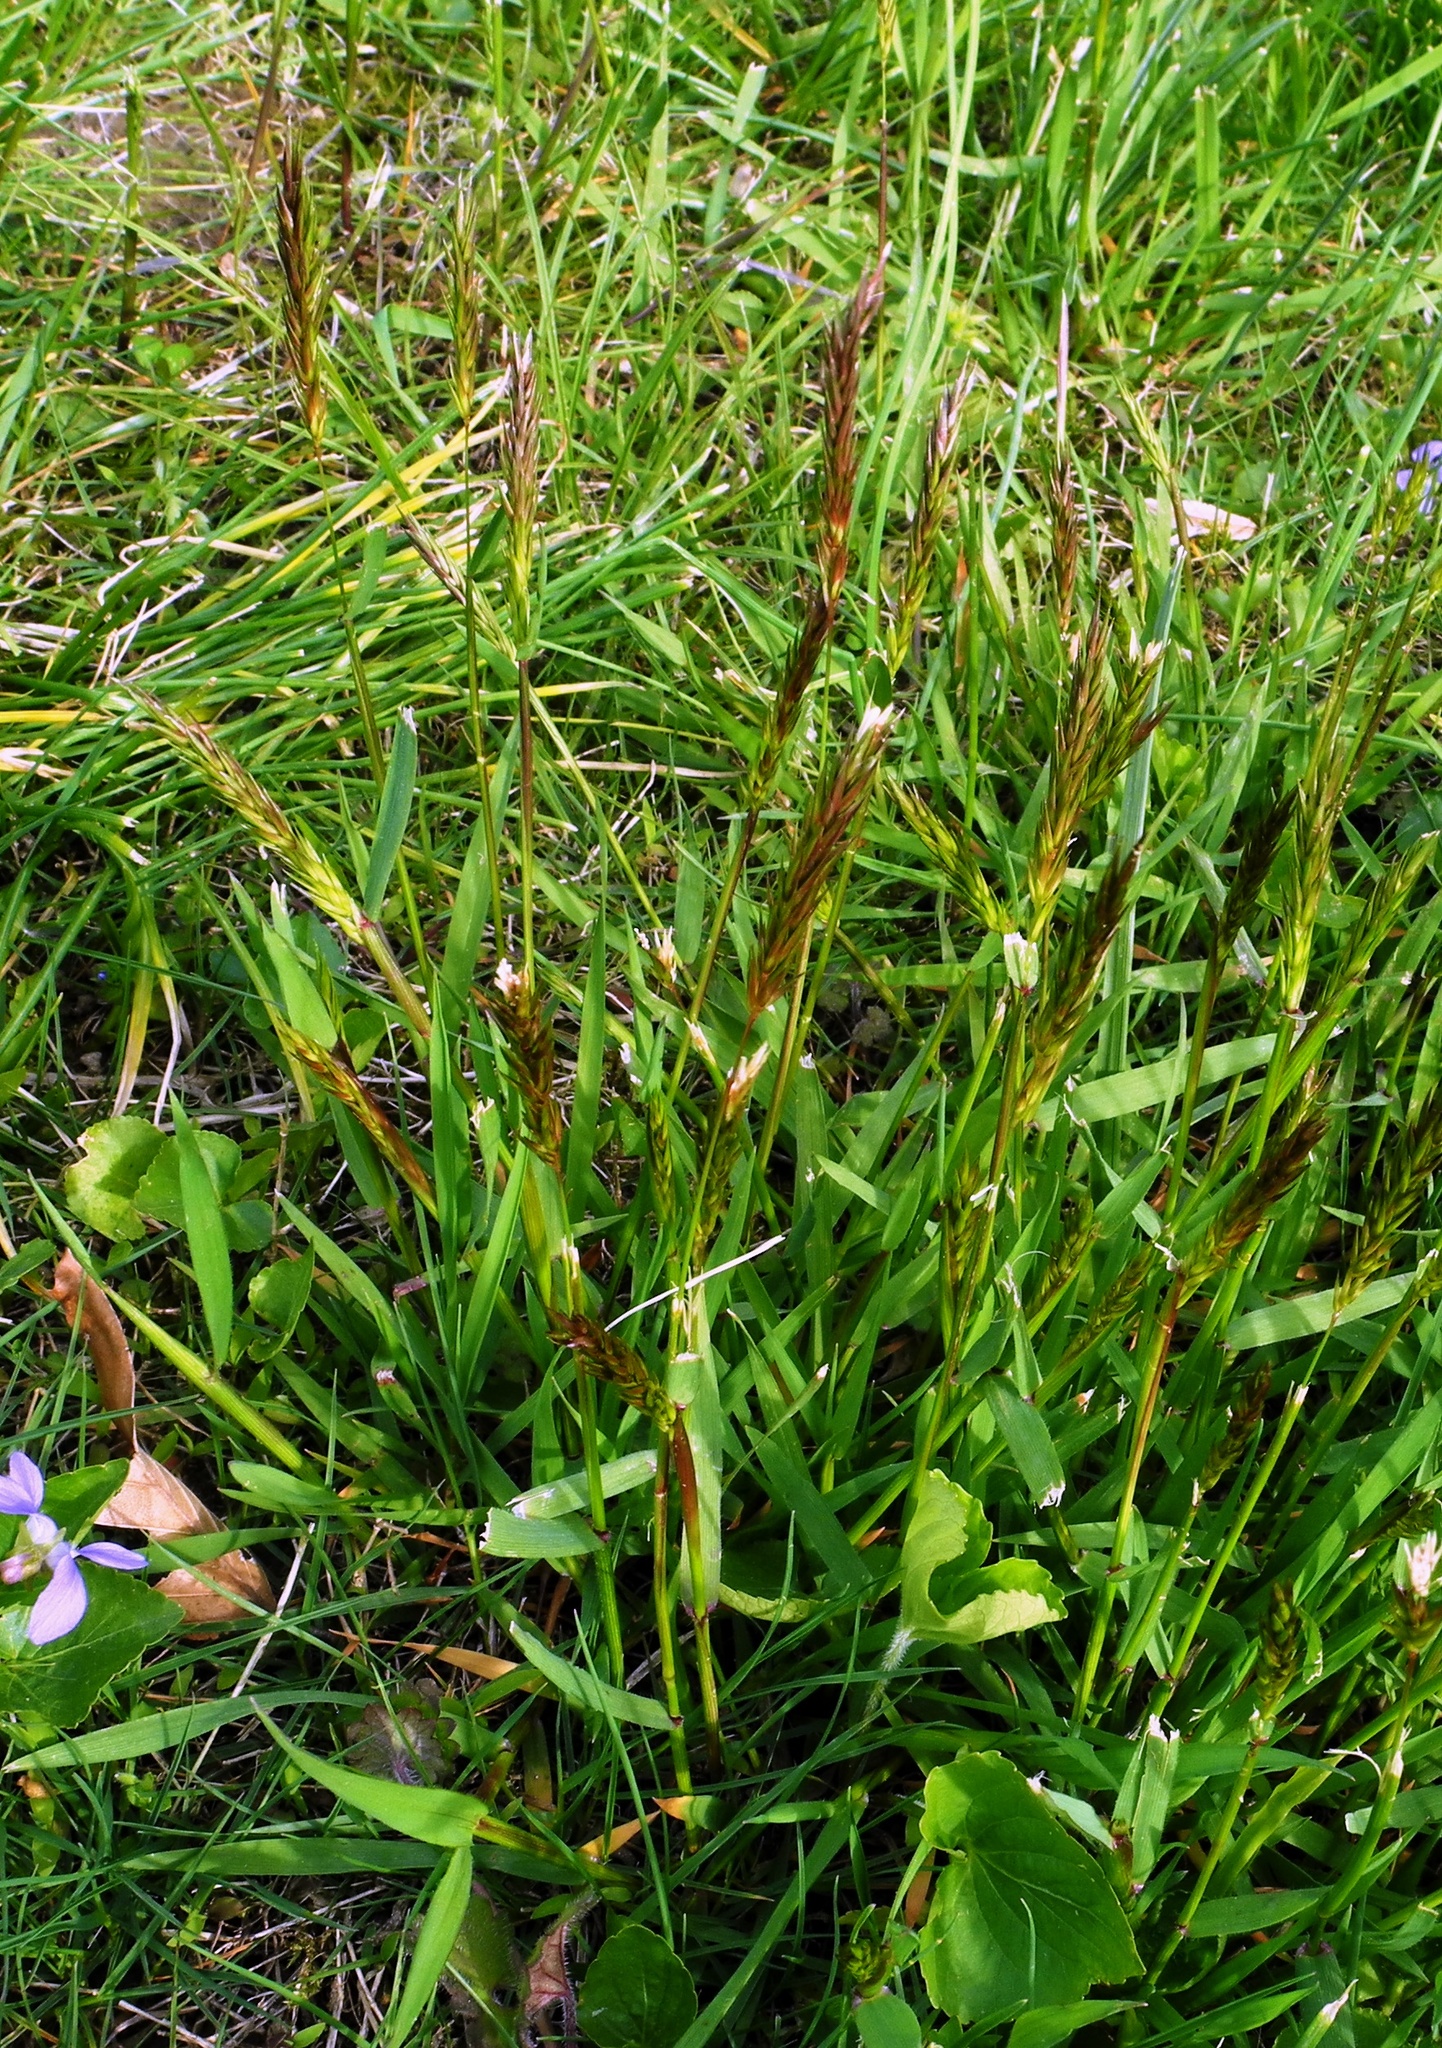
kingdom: Plantae
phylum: Tracheophyta
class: Liliopsida
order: Poales
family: Poaceae
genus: Anthoxanthum
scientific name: Anthoxanthum odoratum
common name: Sweet vernalgrass
